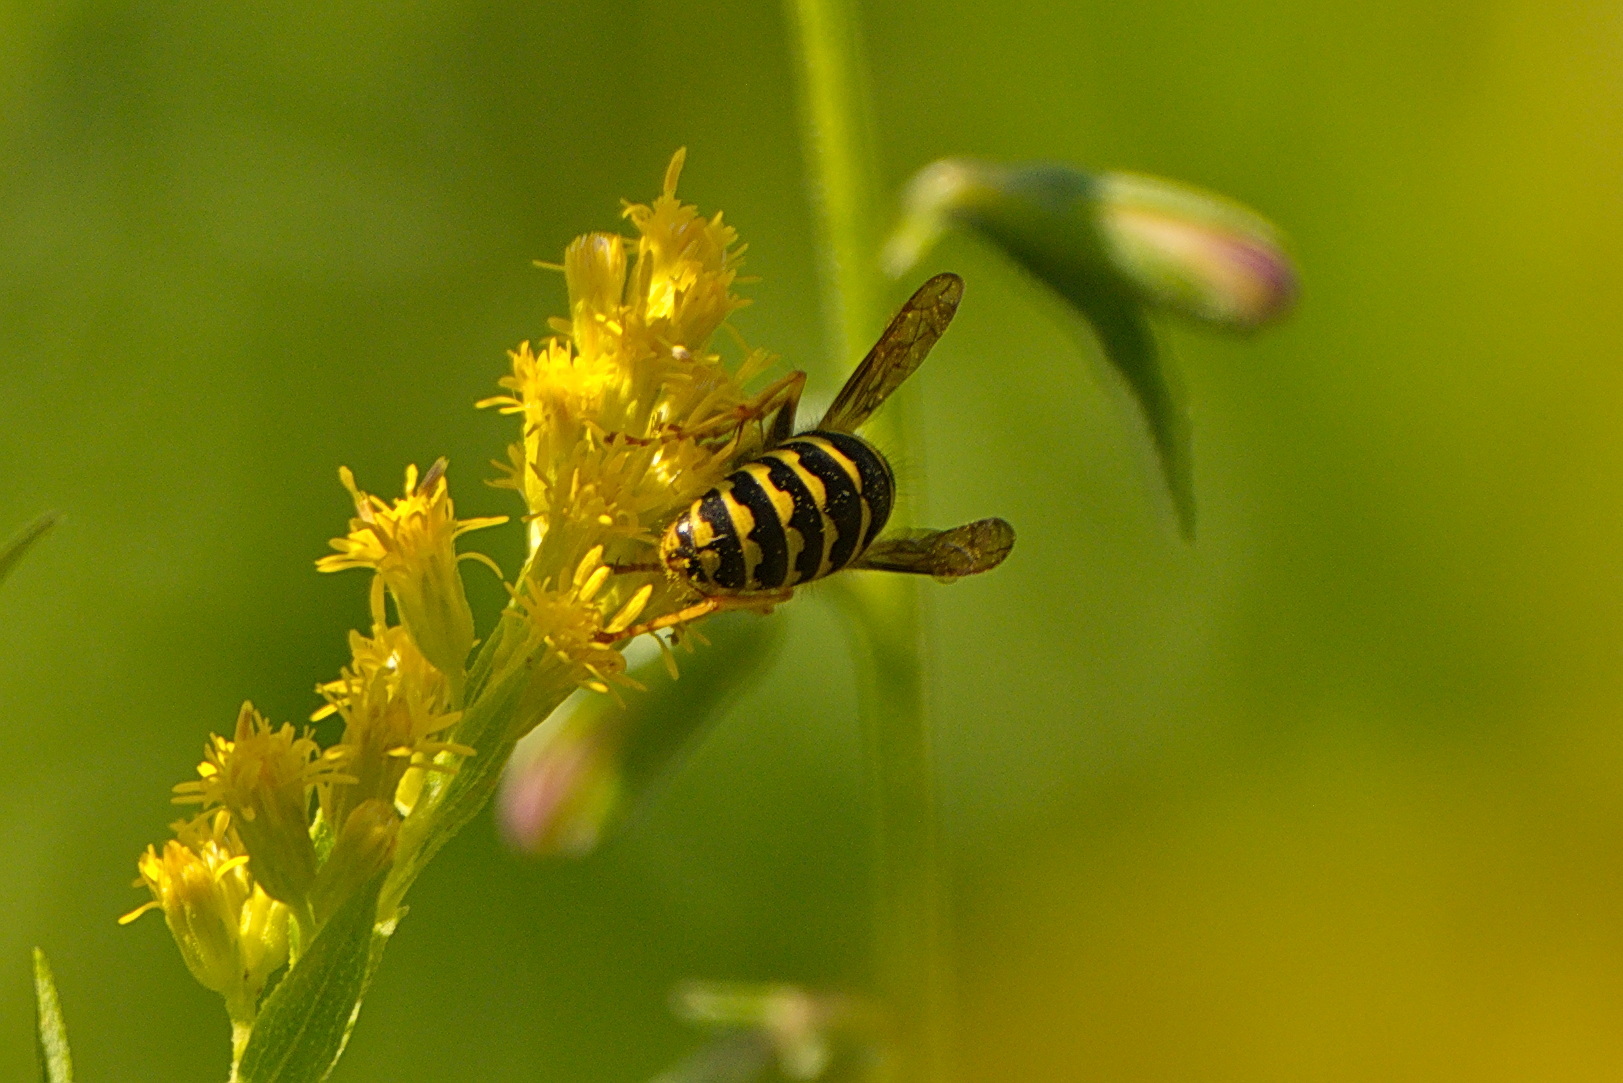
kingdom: Animalia
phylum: Arthropoda
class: Insecta
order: Hymenoptera
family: Vespidae
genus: Dolichovespula
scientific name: Dolichovespula arenaria
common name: Aerial yellowjacket
